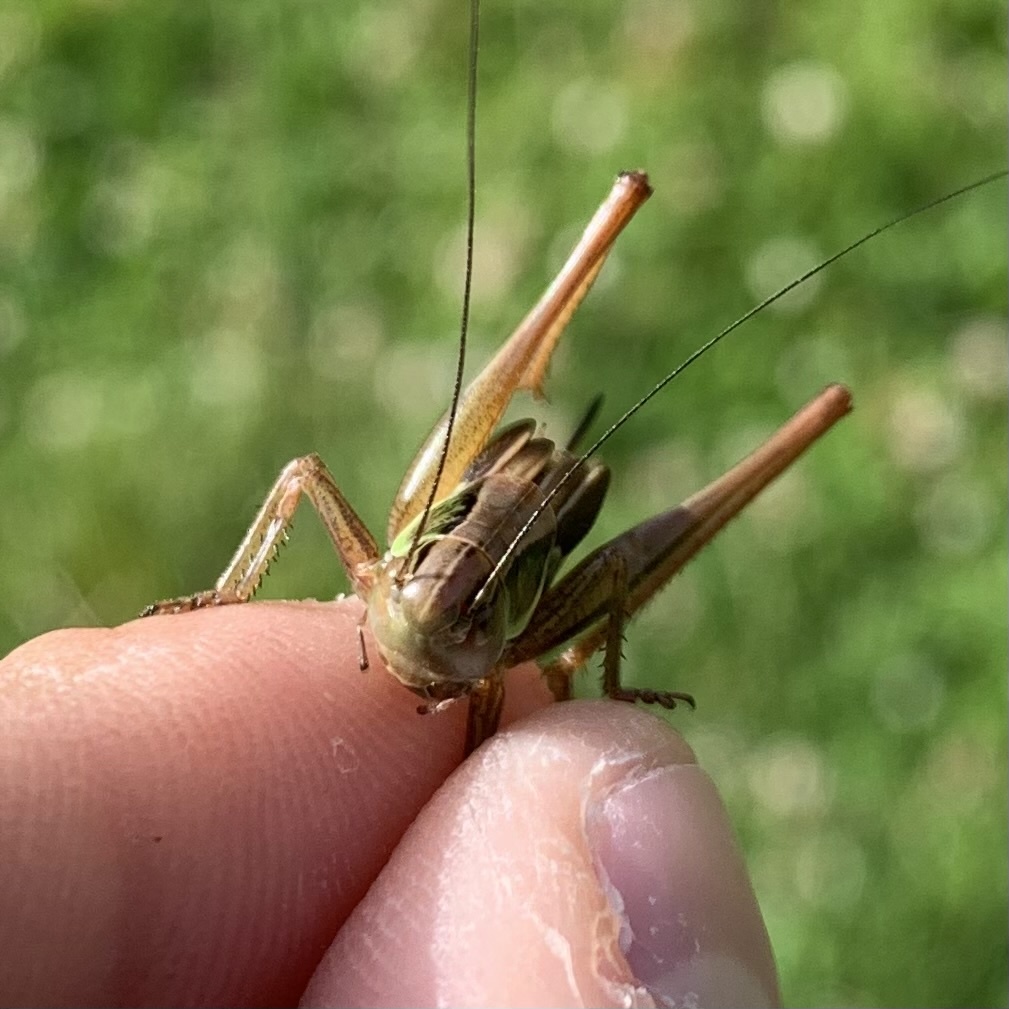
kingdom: Animalia
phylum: Arthropoda
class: Insecta
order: Orthoptera
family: Tettigoniidae
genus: Roeseliana
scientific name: Roeseliana roeselii
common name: Roesel's bush cricket
